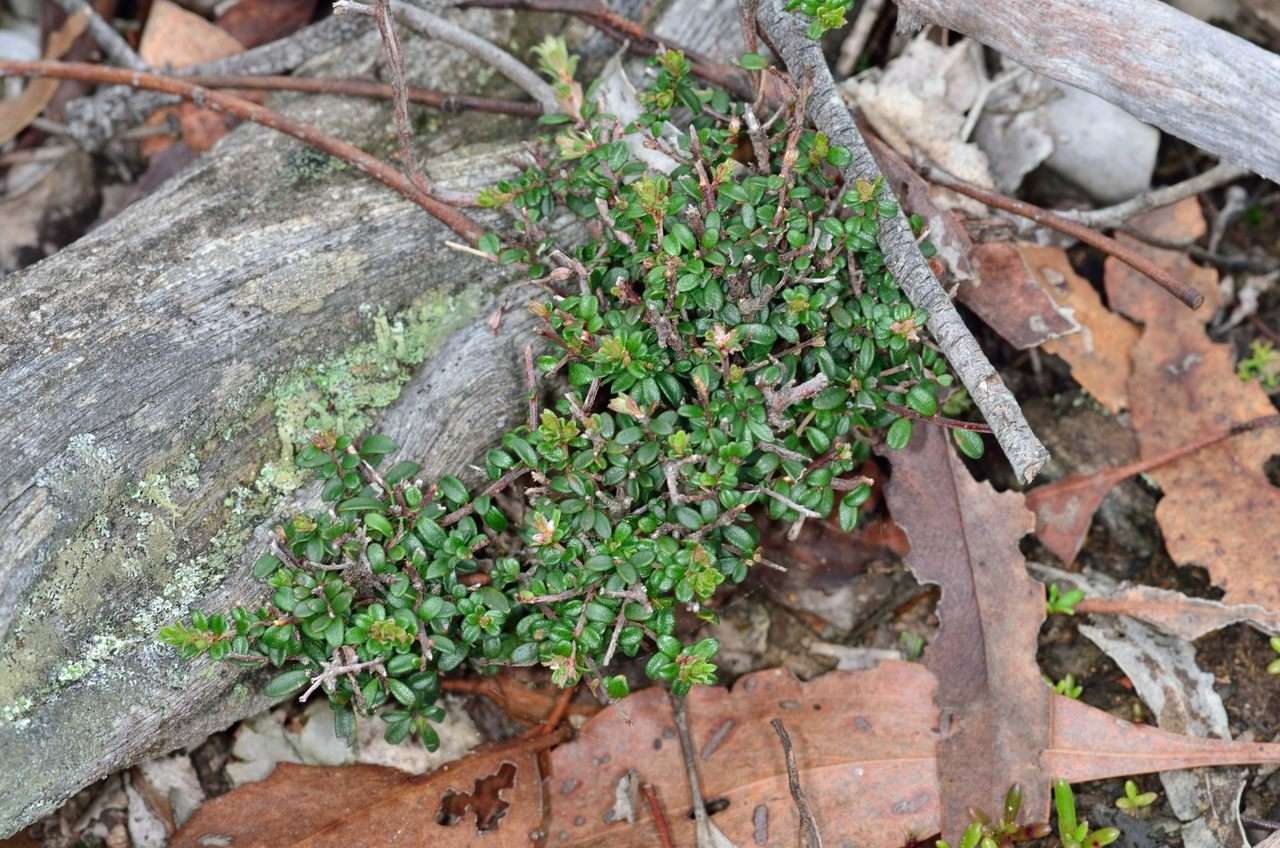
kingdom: Plantae
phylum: Tracheophyta
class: Magnoliopsida
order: Fabales
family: Fabaceae
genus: Pultenaea
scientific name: Pultenaea gunnii
